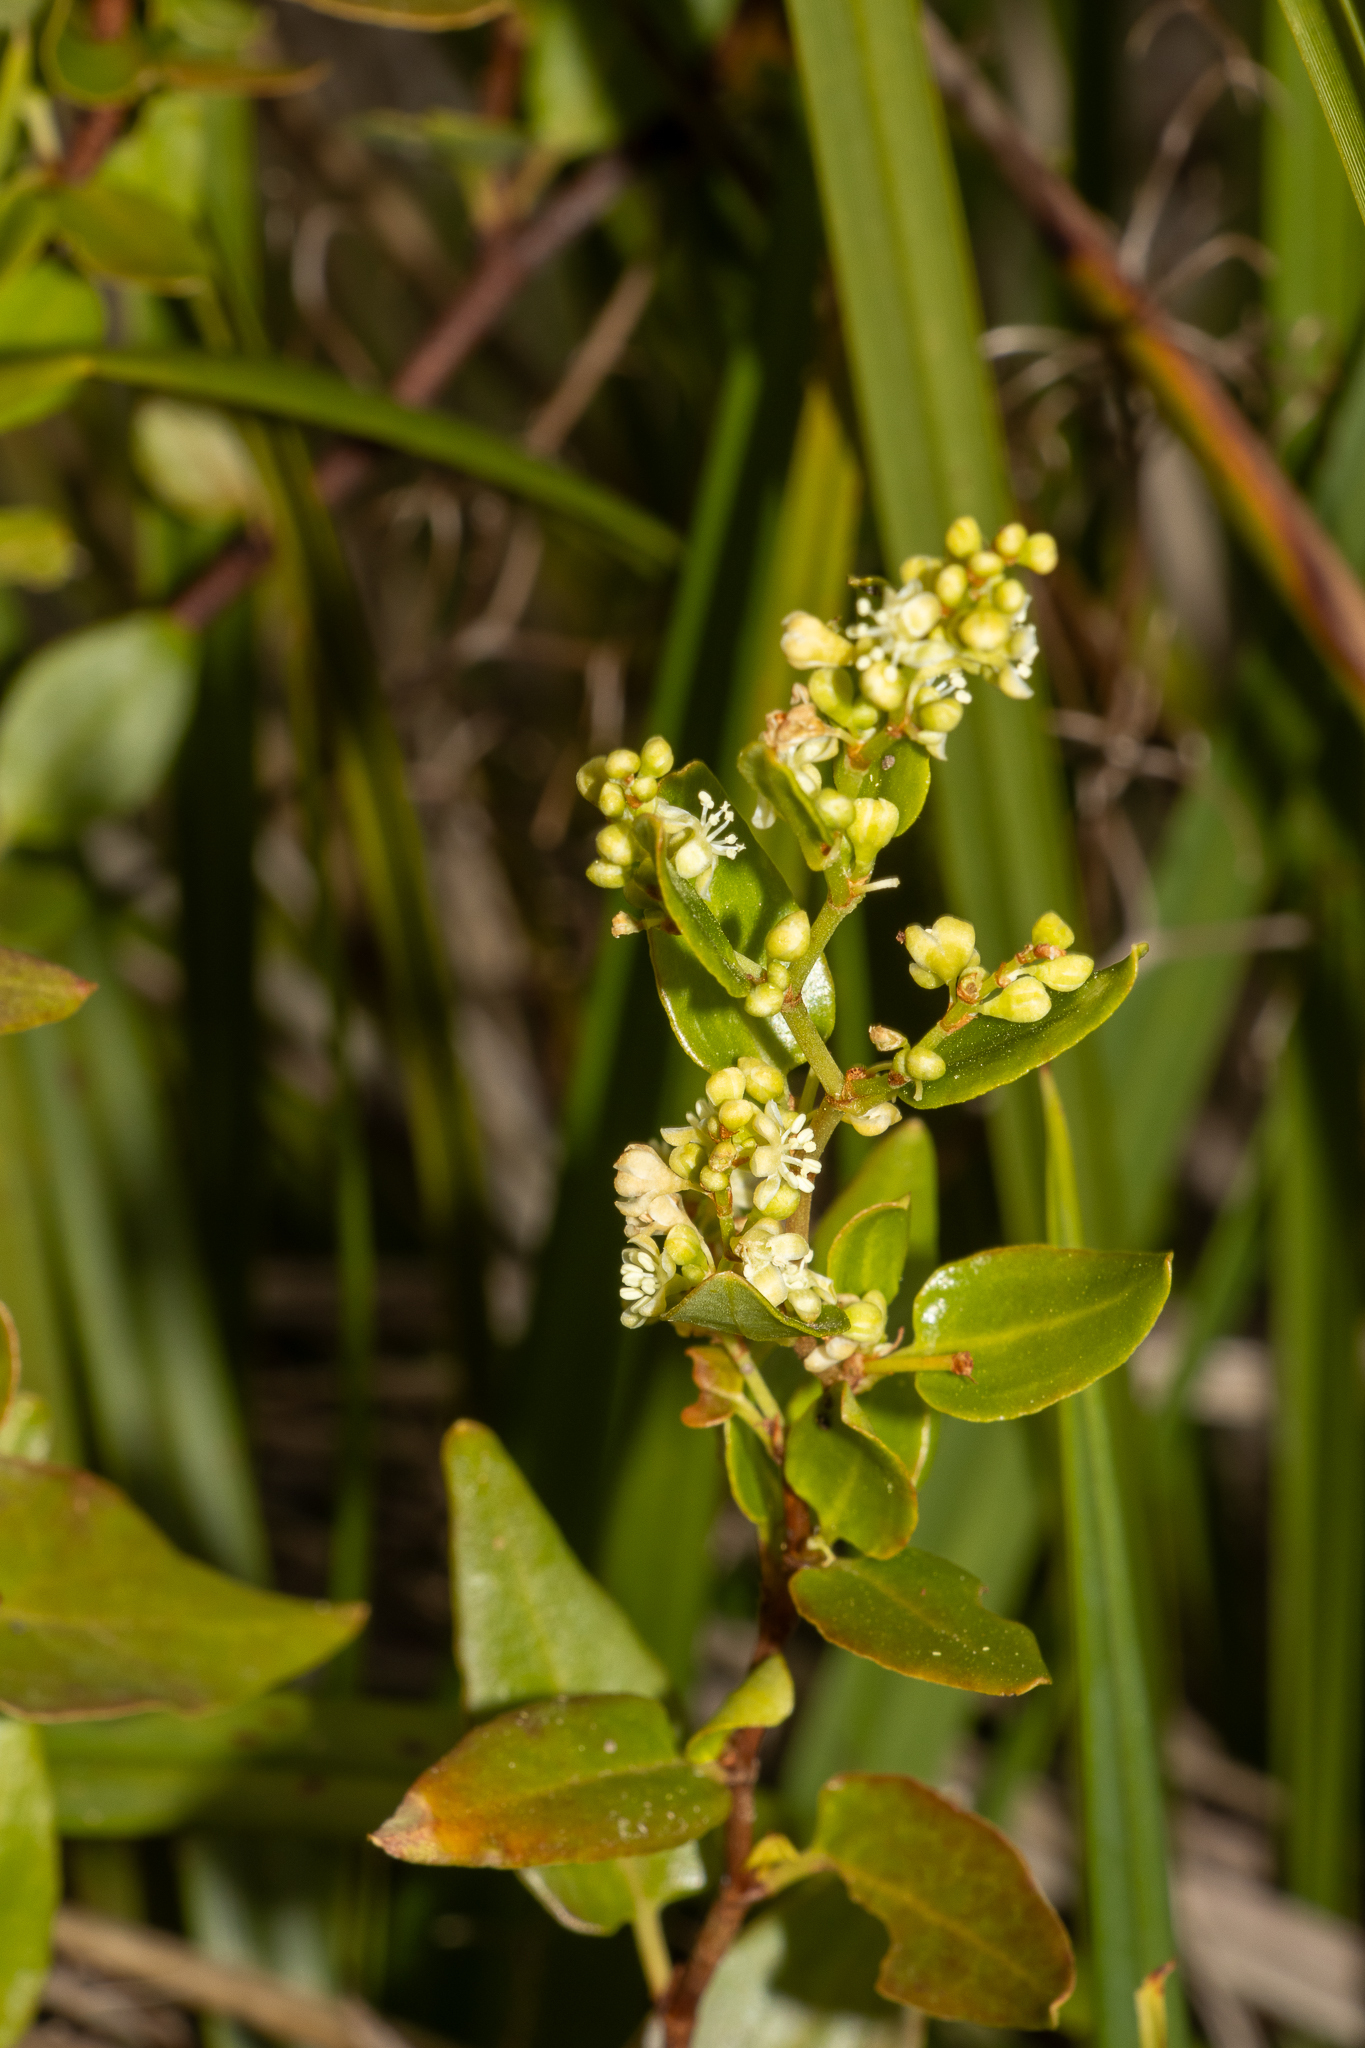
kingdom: Plantae
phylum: Tracheophyta
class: Magnoliopsida
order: Caryophyllales
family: Polygonaceae
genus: Muehlenbeckia
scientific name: Muehlenbeckia gunnii
